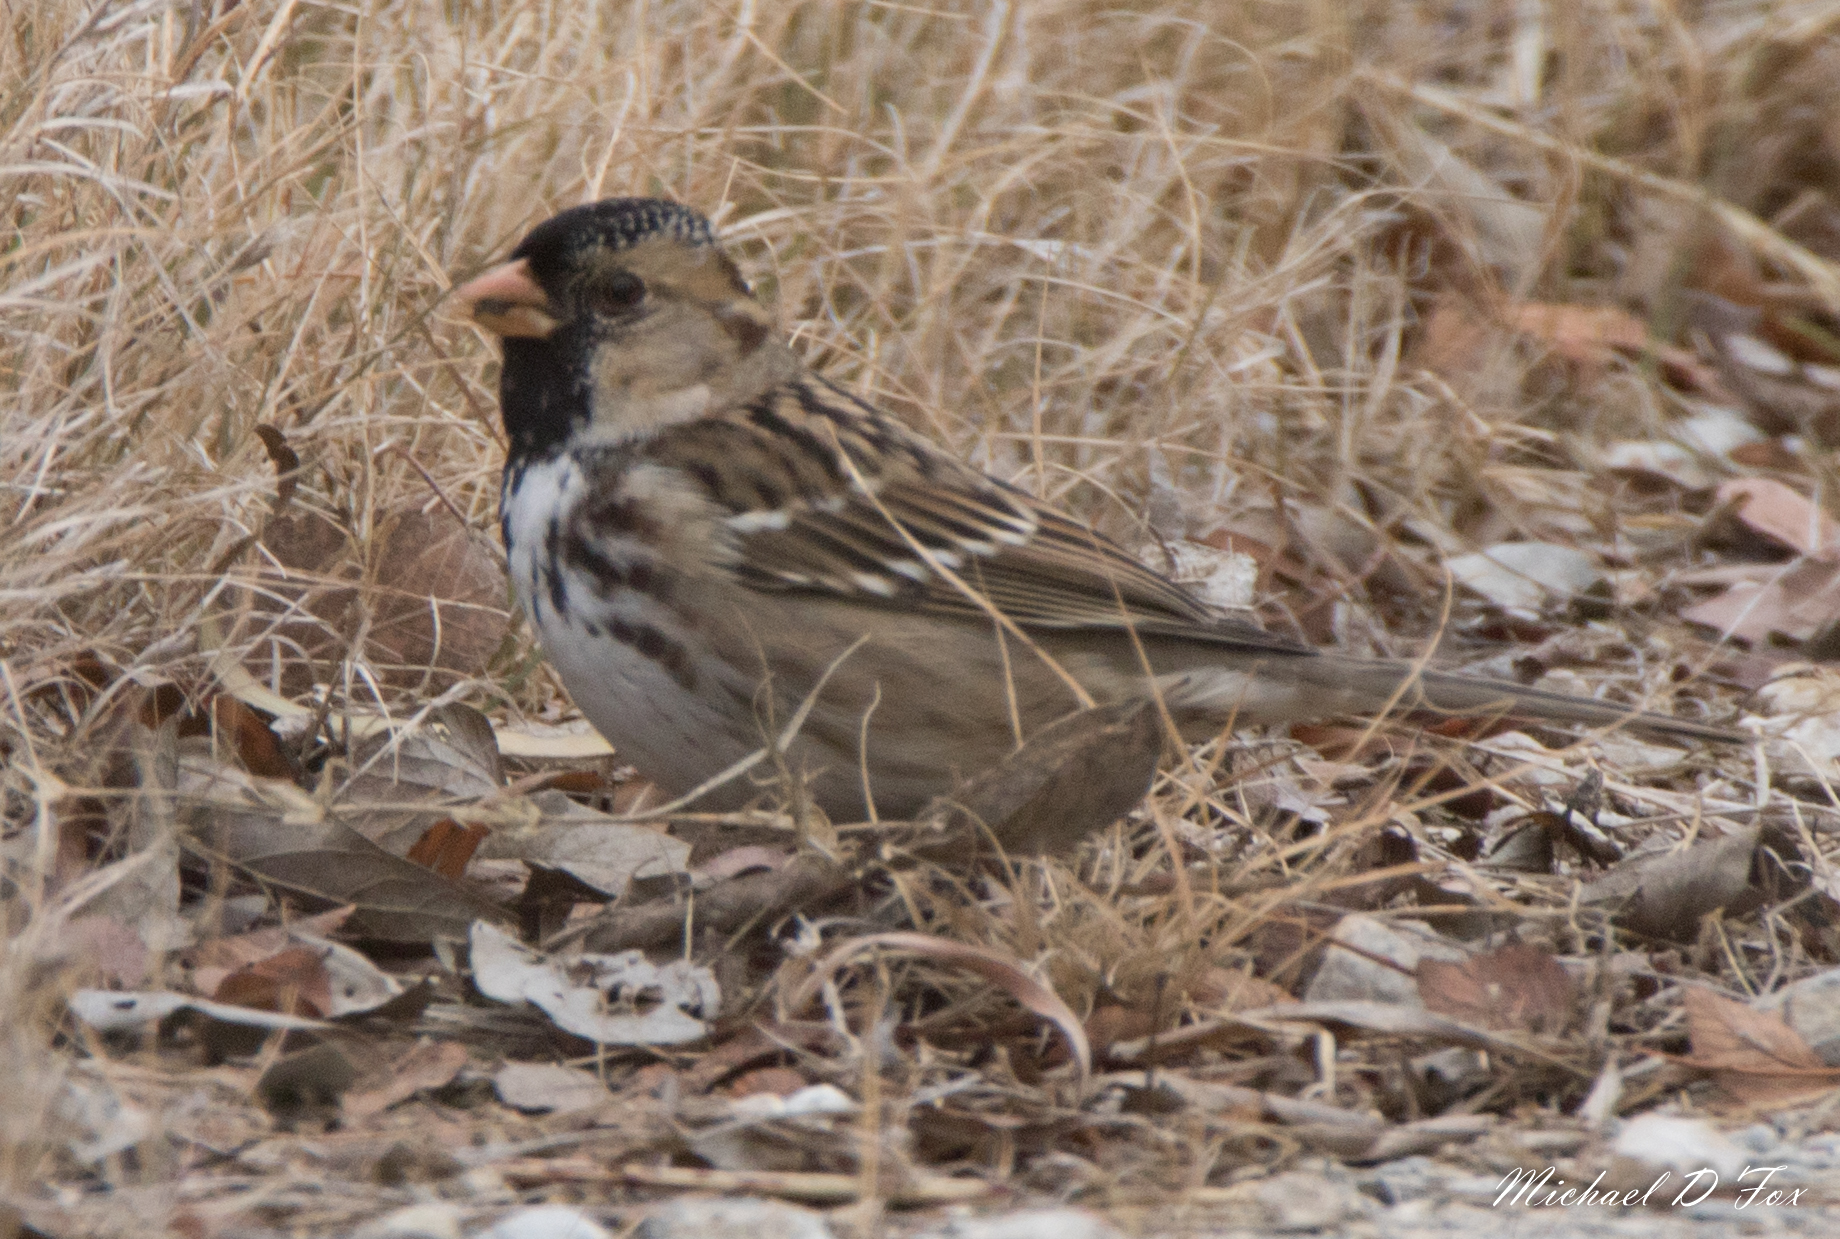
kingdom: Animalia
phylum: Chordata
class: Aves
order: Passeriformes
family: Passerellidae
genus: Zonotrichia
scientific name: Zonotrichia querula
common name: Harris's sparrow
